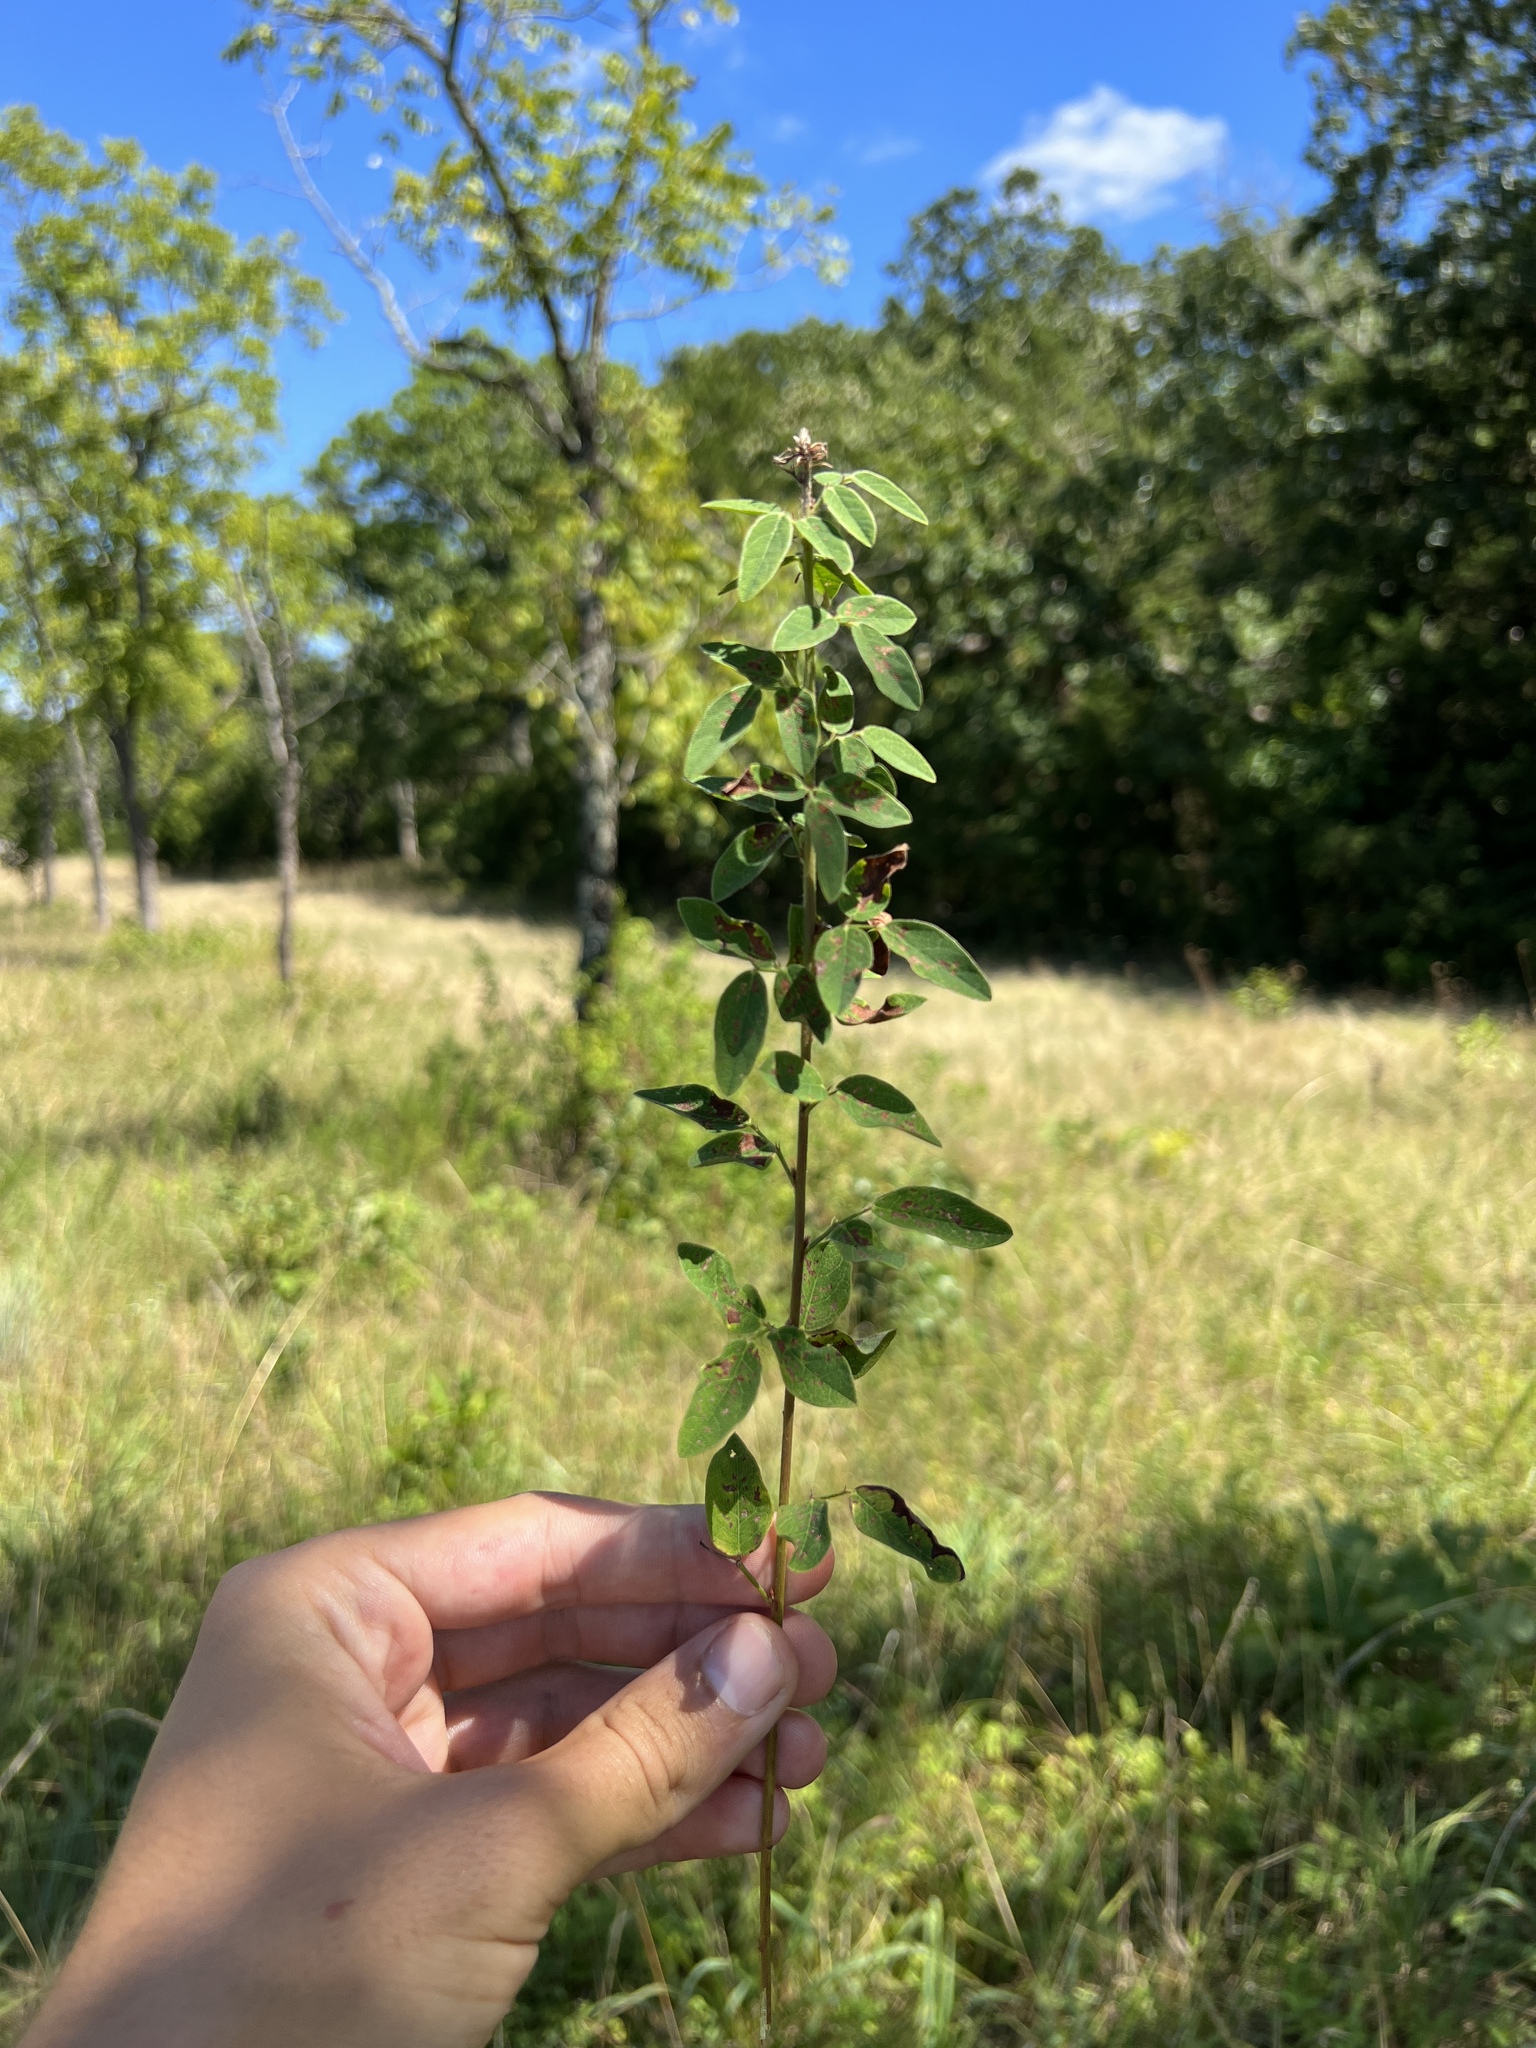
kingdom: Plantae
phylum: Tracheophyta
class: Magnoliopsida
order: Fabales
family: Fabaceae
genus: Desmodium
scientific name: Desmodium ciliare
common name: Hairy small-leaf ticktrefoil
